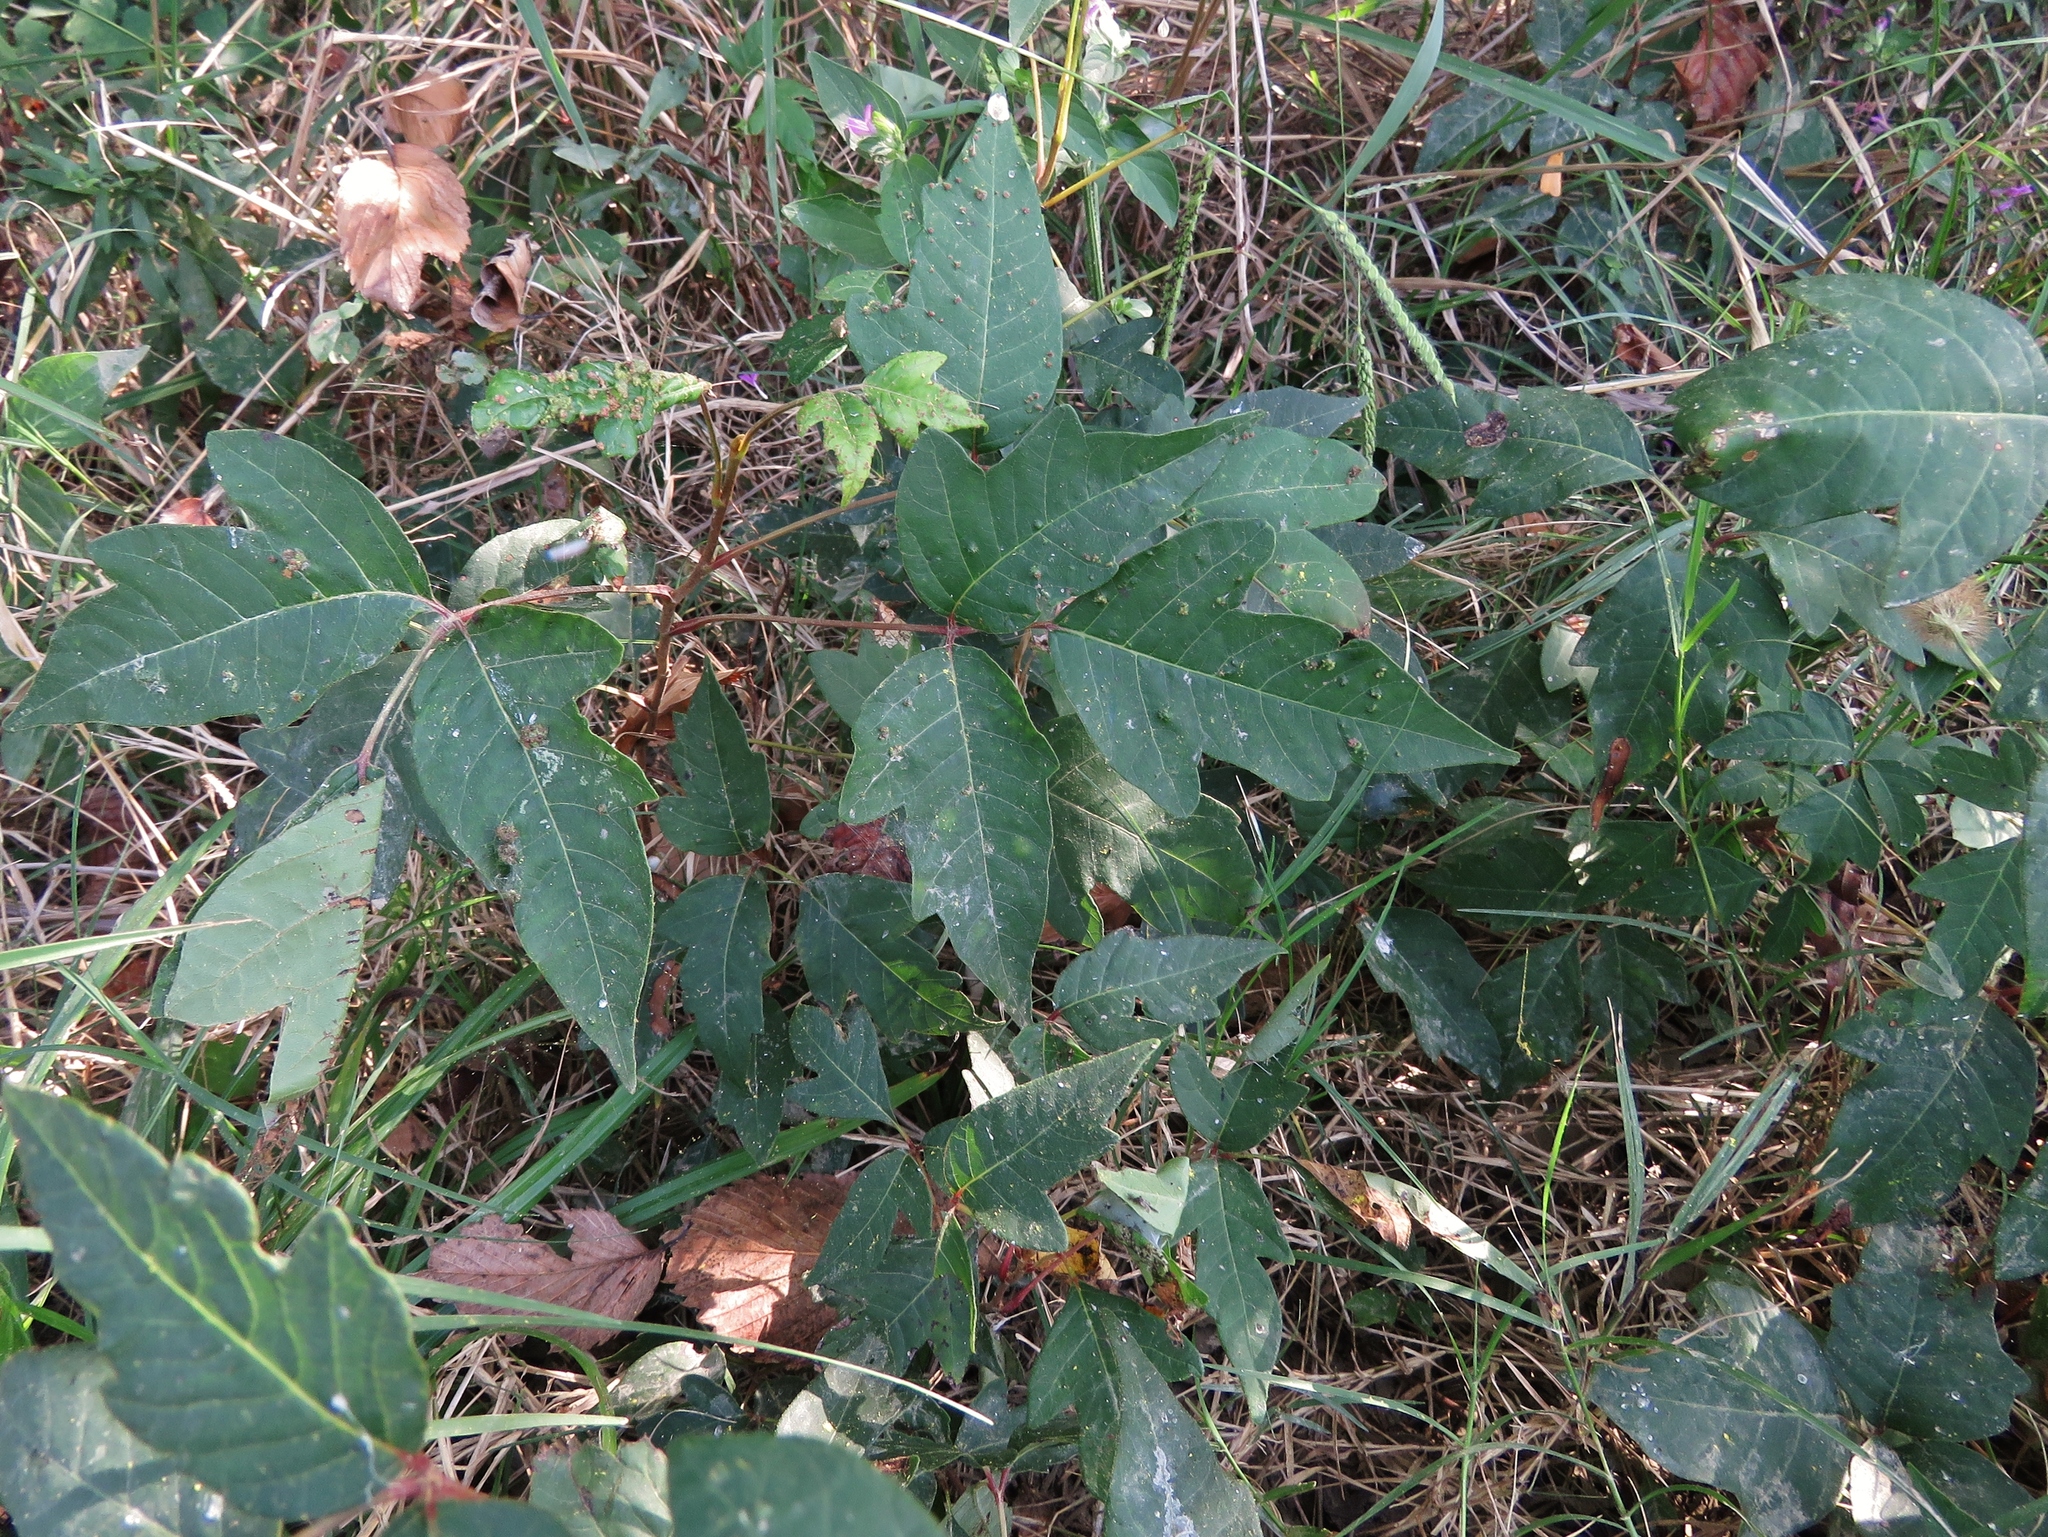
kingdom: Plantae
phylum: Tracheophyta
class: Magnoliopsida
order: Sapindales
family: Anacardiaceae
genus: Toxicodendron
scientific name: Toxicodendron radicans
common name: Poison ivy
